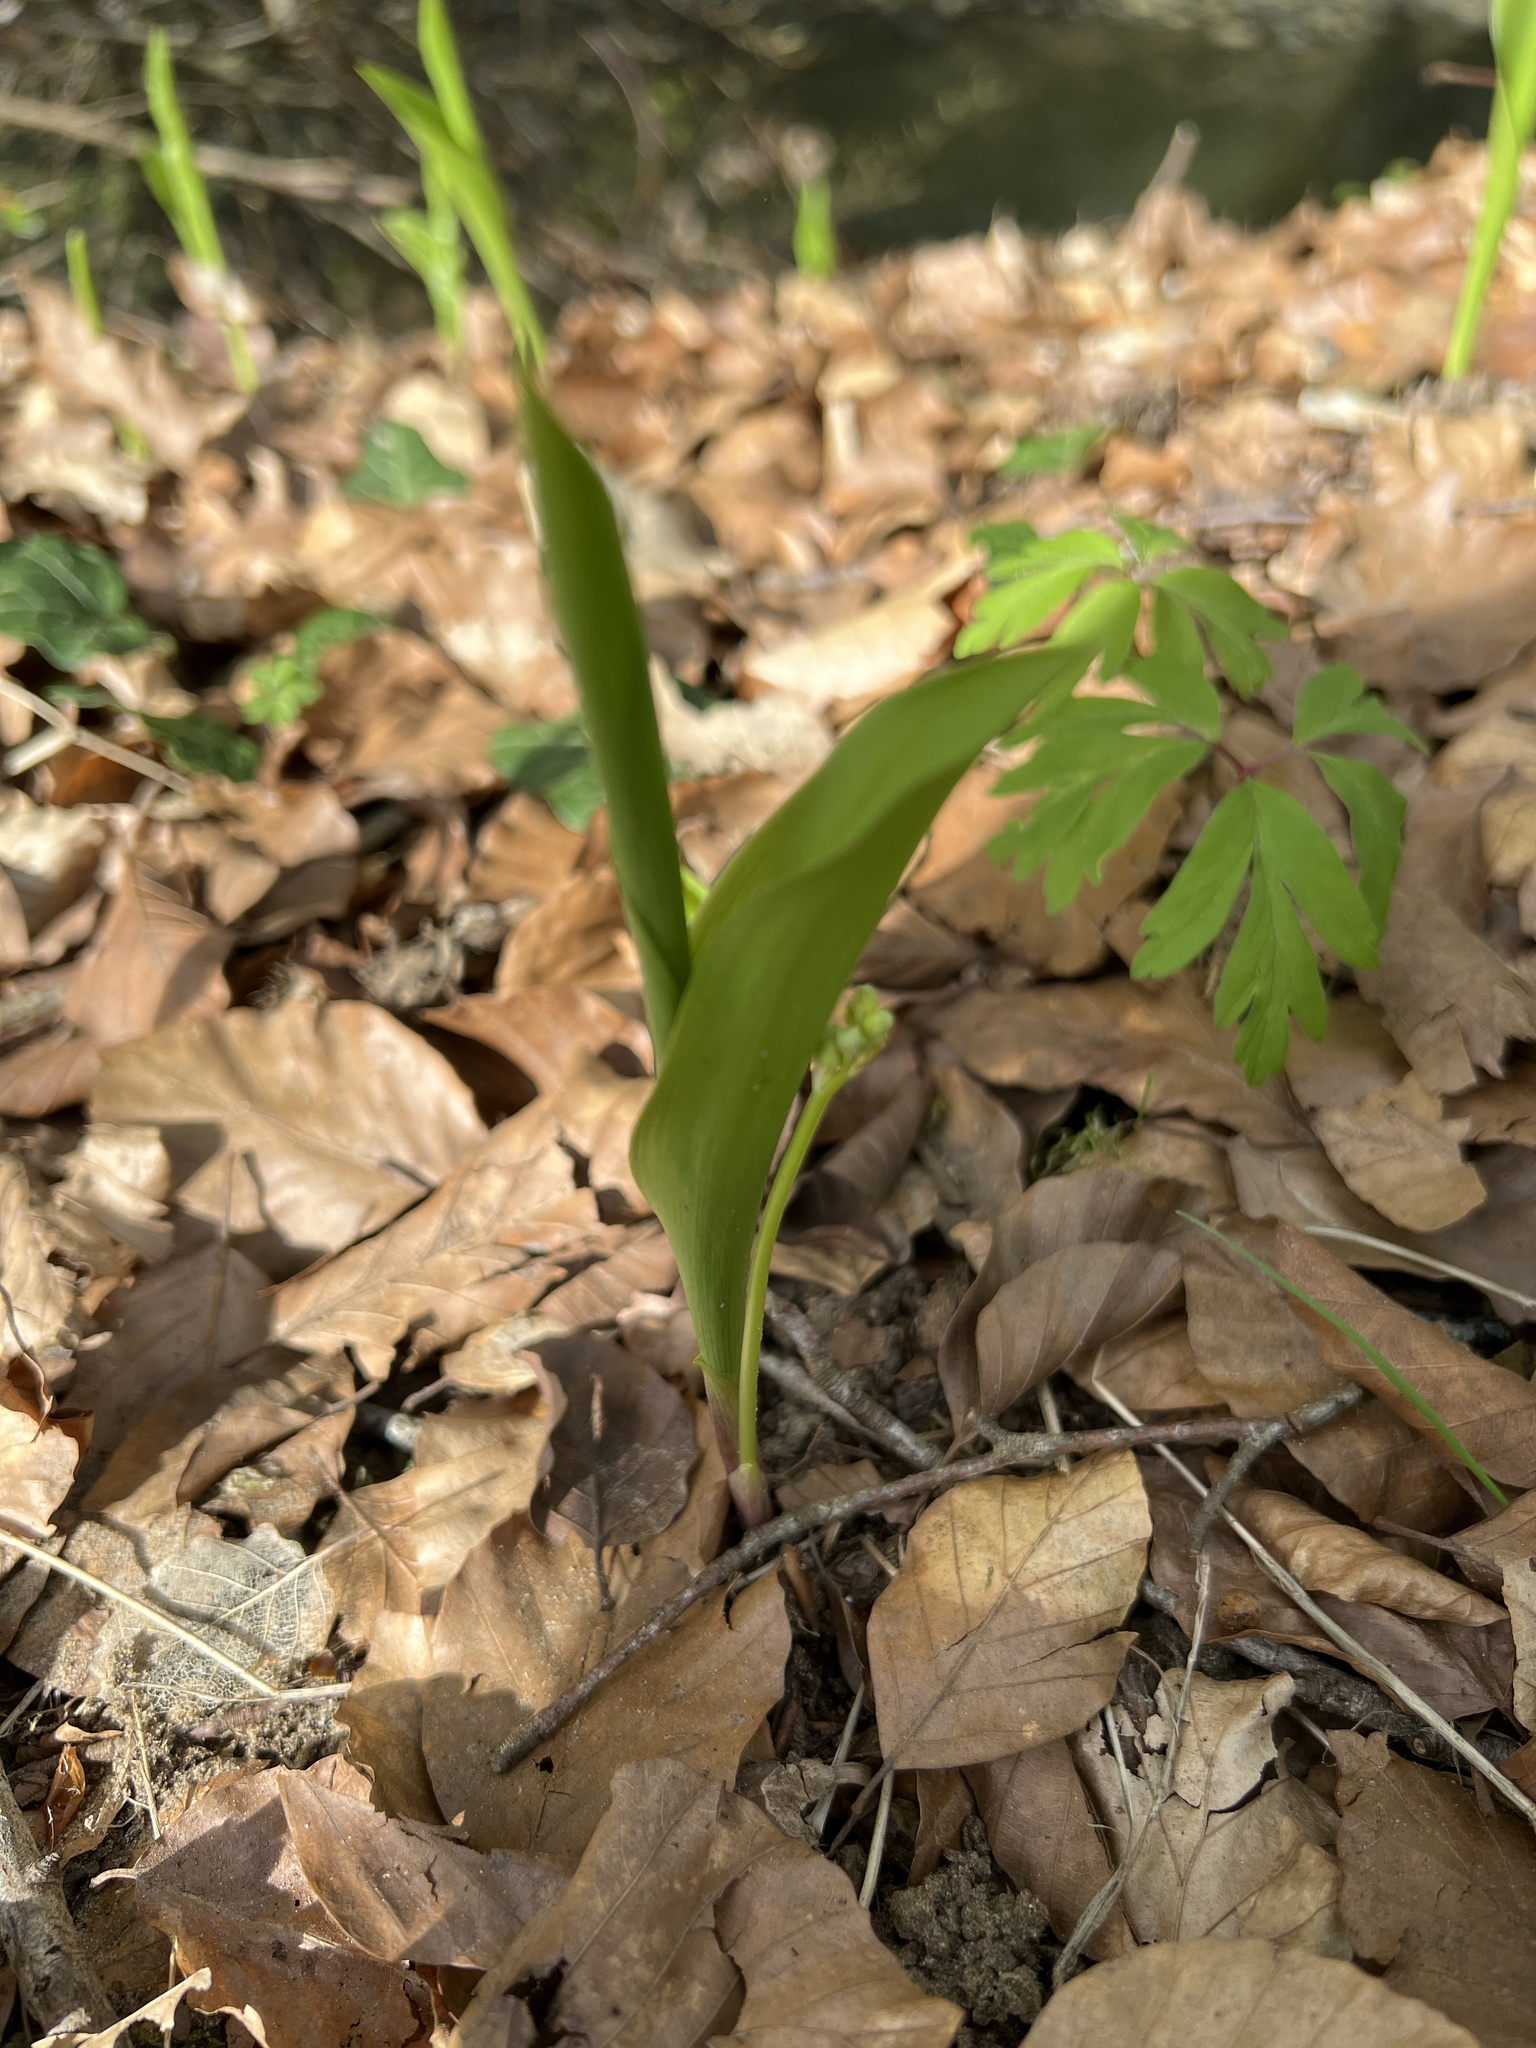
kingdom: Plantae
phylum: Tracheophyta
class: Liliopsida
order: Asparagales
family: Asparagaceae
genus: Convallaria
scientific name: Convallaria majalis
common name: Lily-of-the-valley
